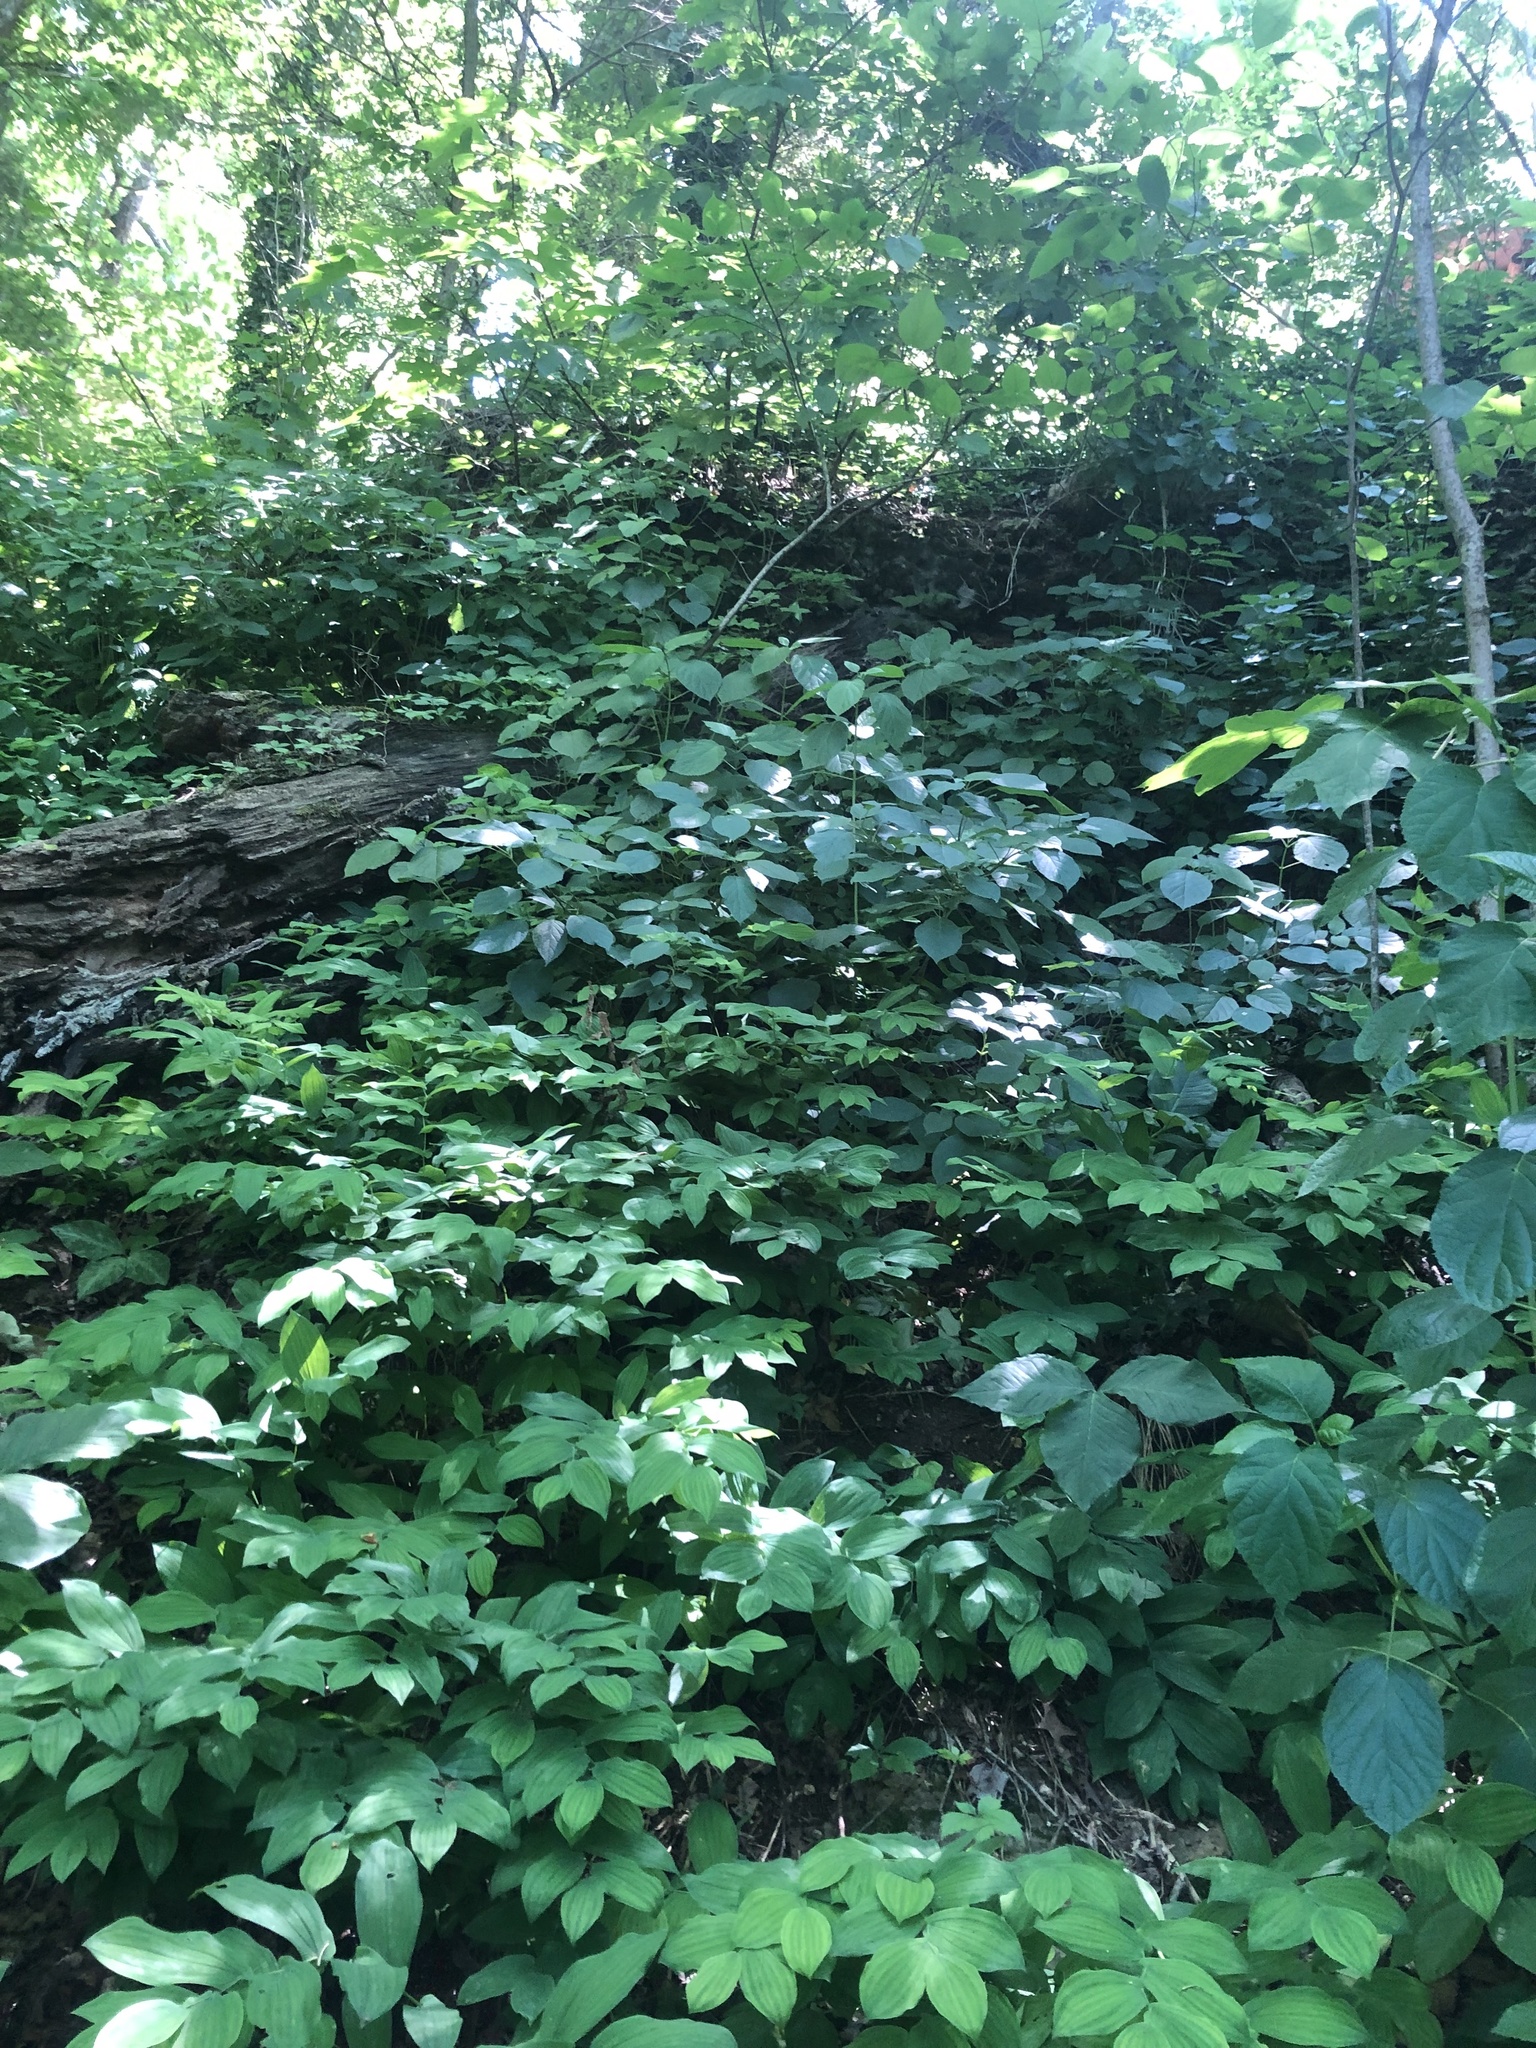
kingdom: Plantae
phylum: Tracheophyta
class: Liliopsida
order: Liliales
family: Colchicaceae
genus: Uvularia
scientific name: Uvularia grandiflora
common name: Bellwort
